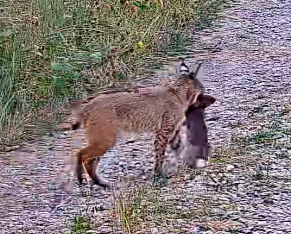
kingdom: Animalia
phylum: Chordata
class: Mammalia
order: Carnivora
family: Felidae
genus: Lynx
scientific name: Lynx rufus
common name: Bobcat
